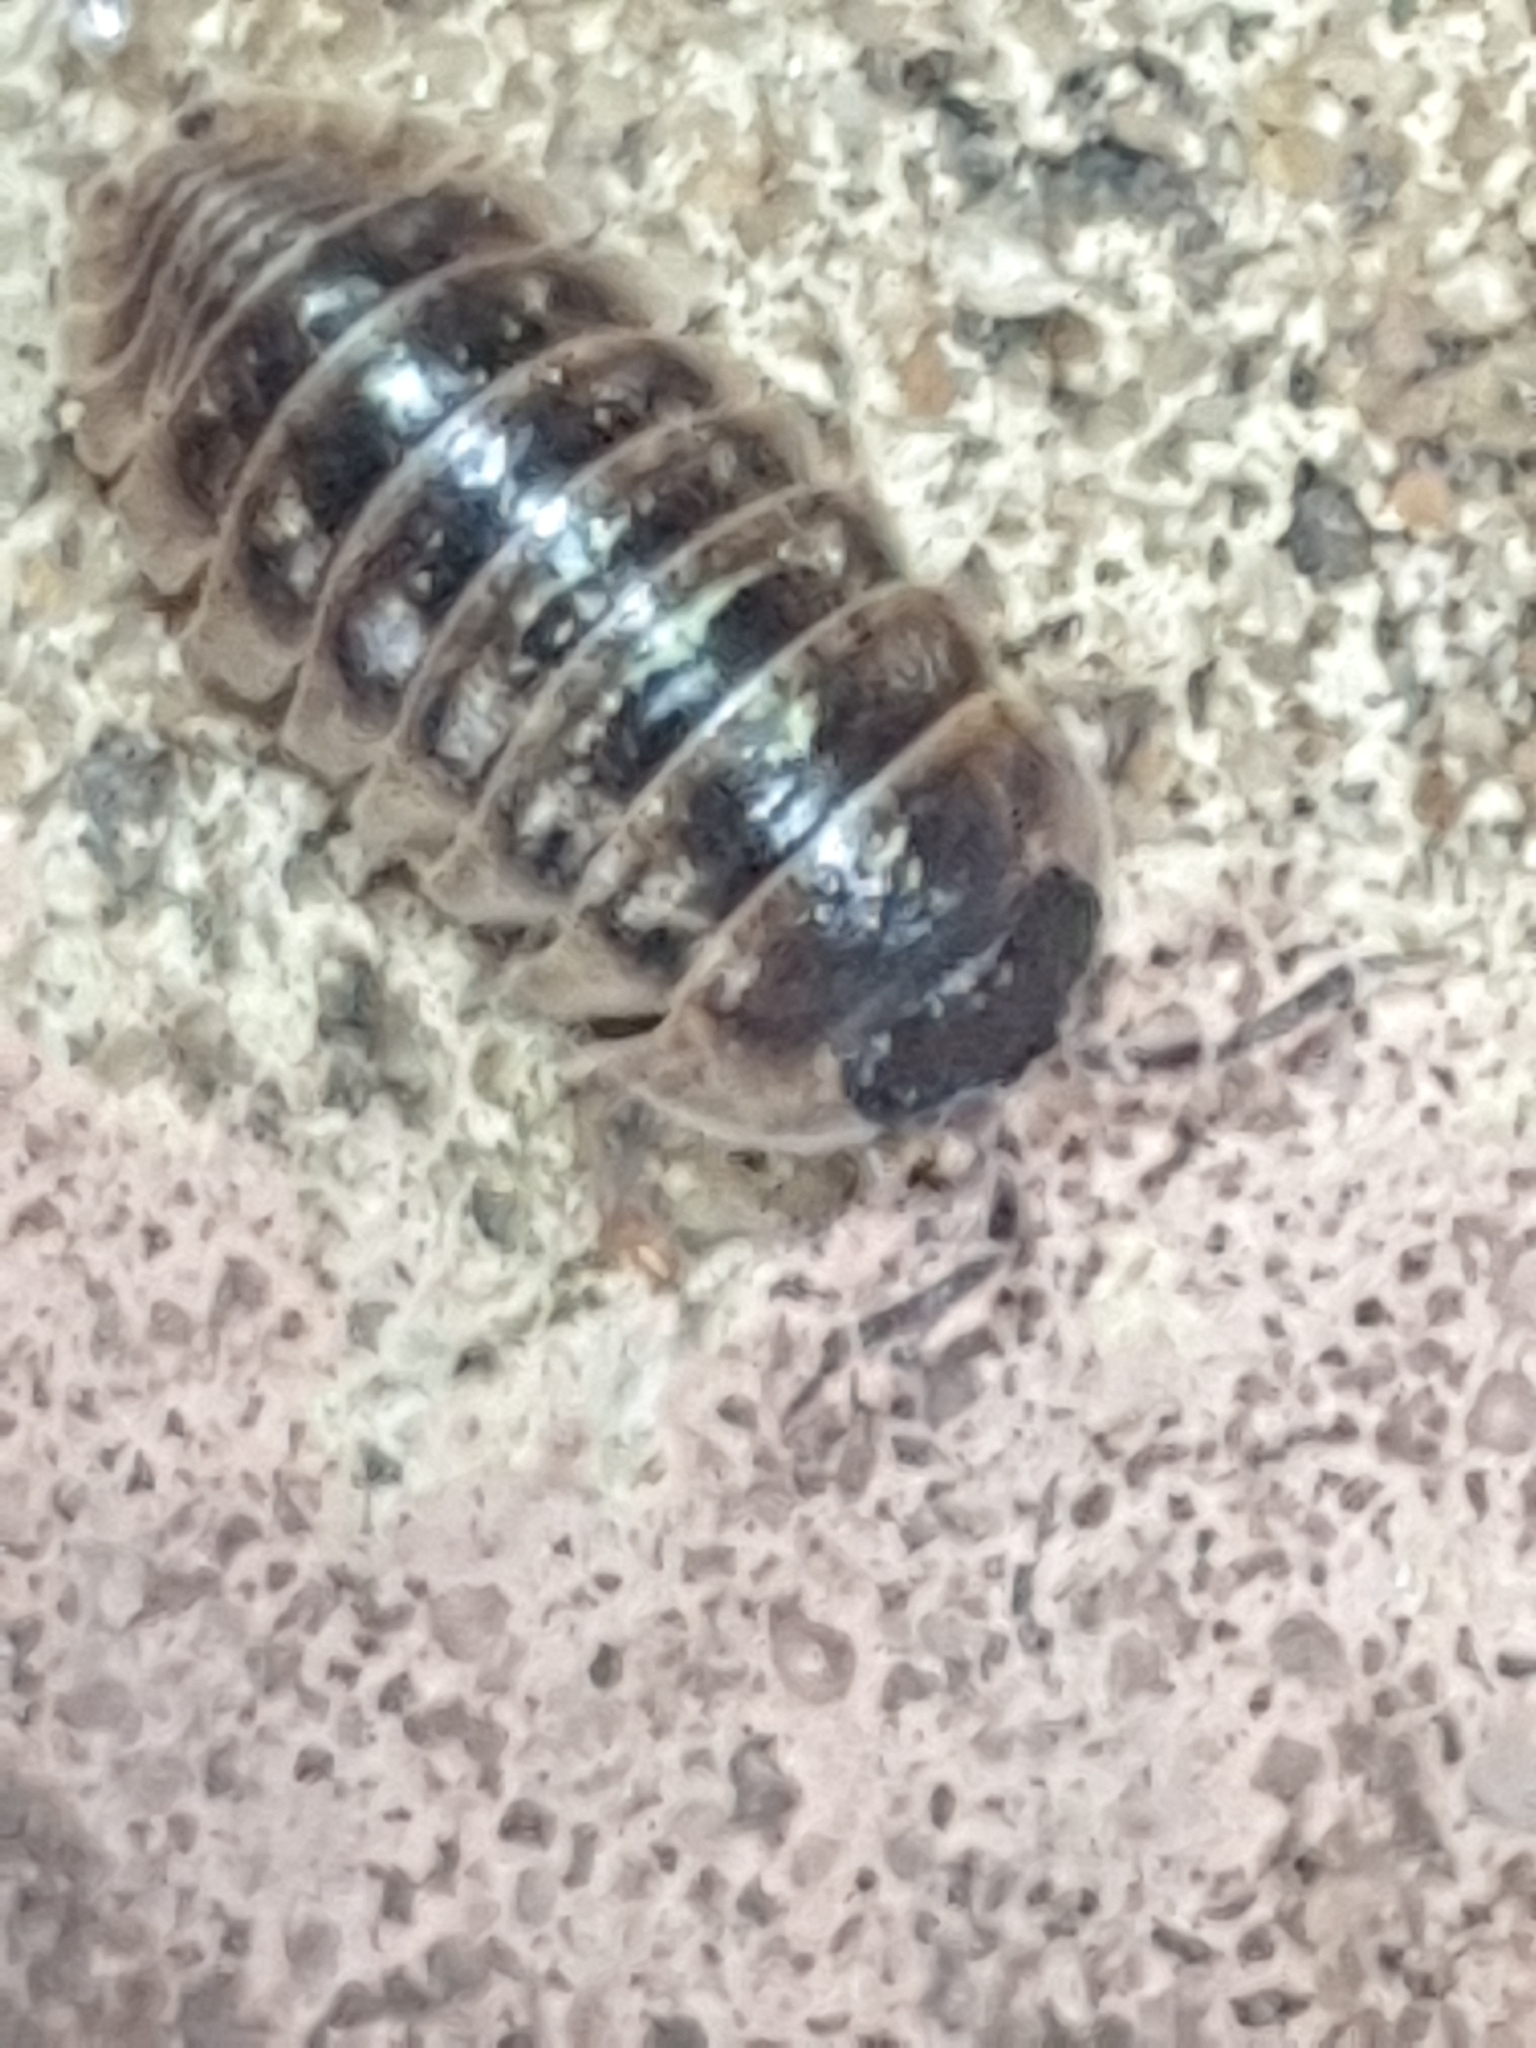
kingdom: Animalia
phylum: Arthropoda
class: Malacostraca
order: Isopoda
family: Armadillidiidae
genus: Armadillidium
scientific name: Armadillidium depressum
